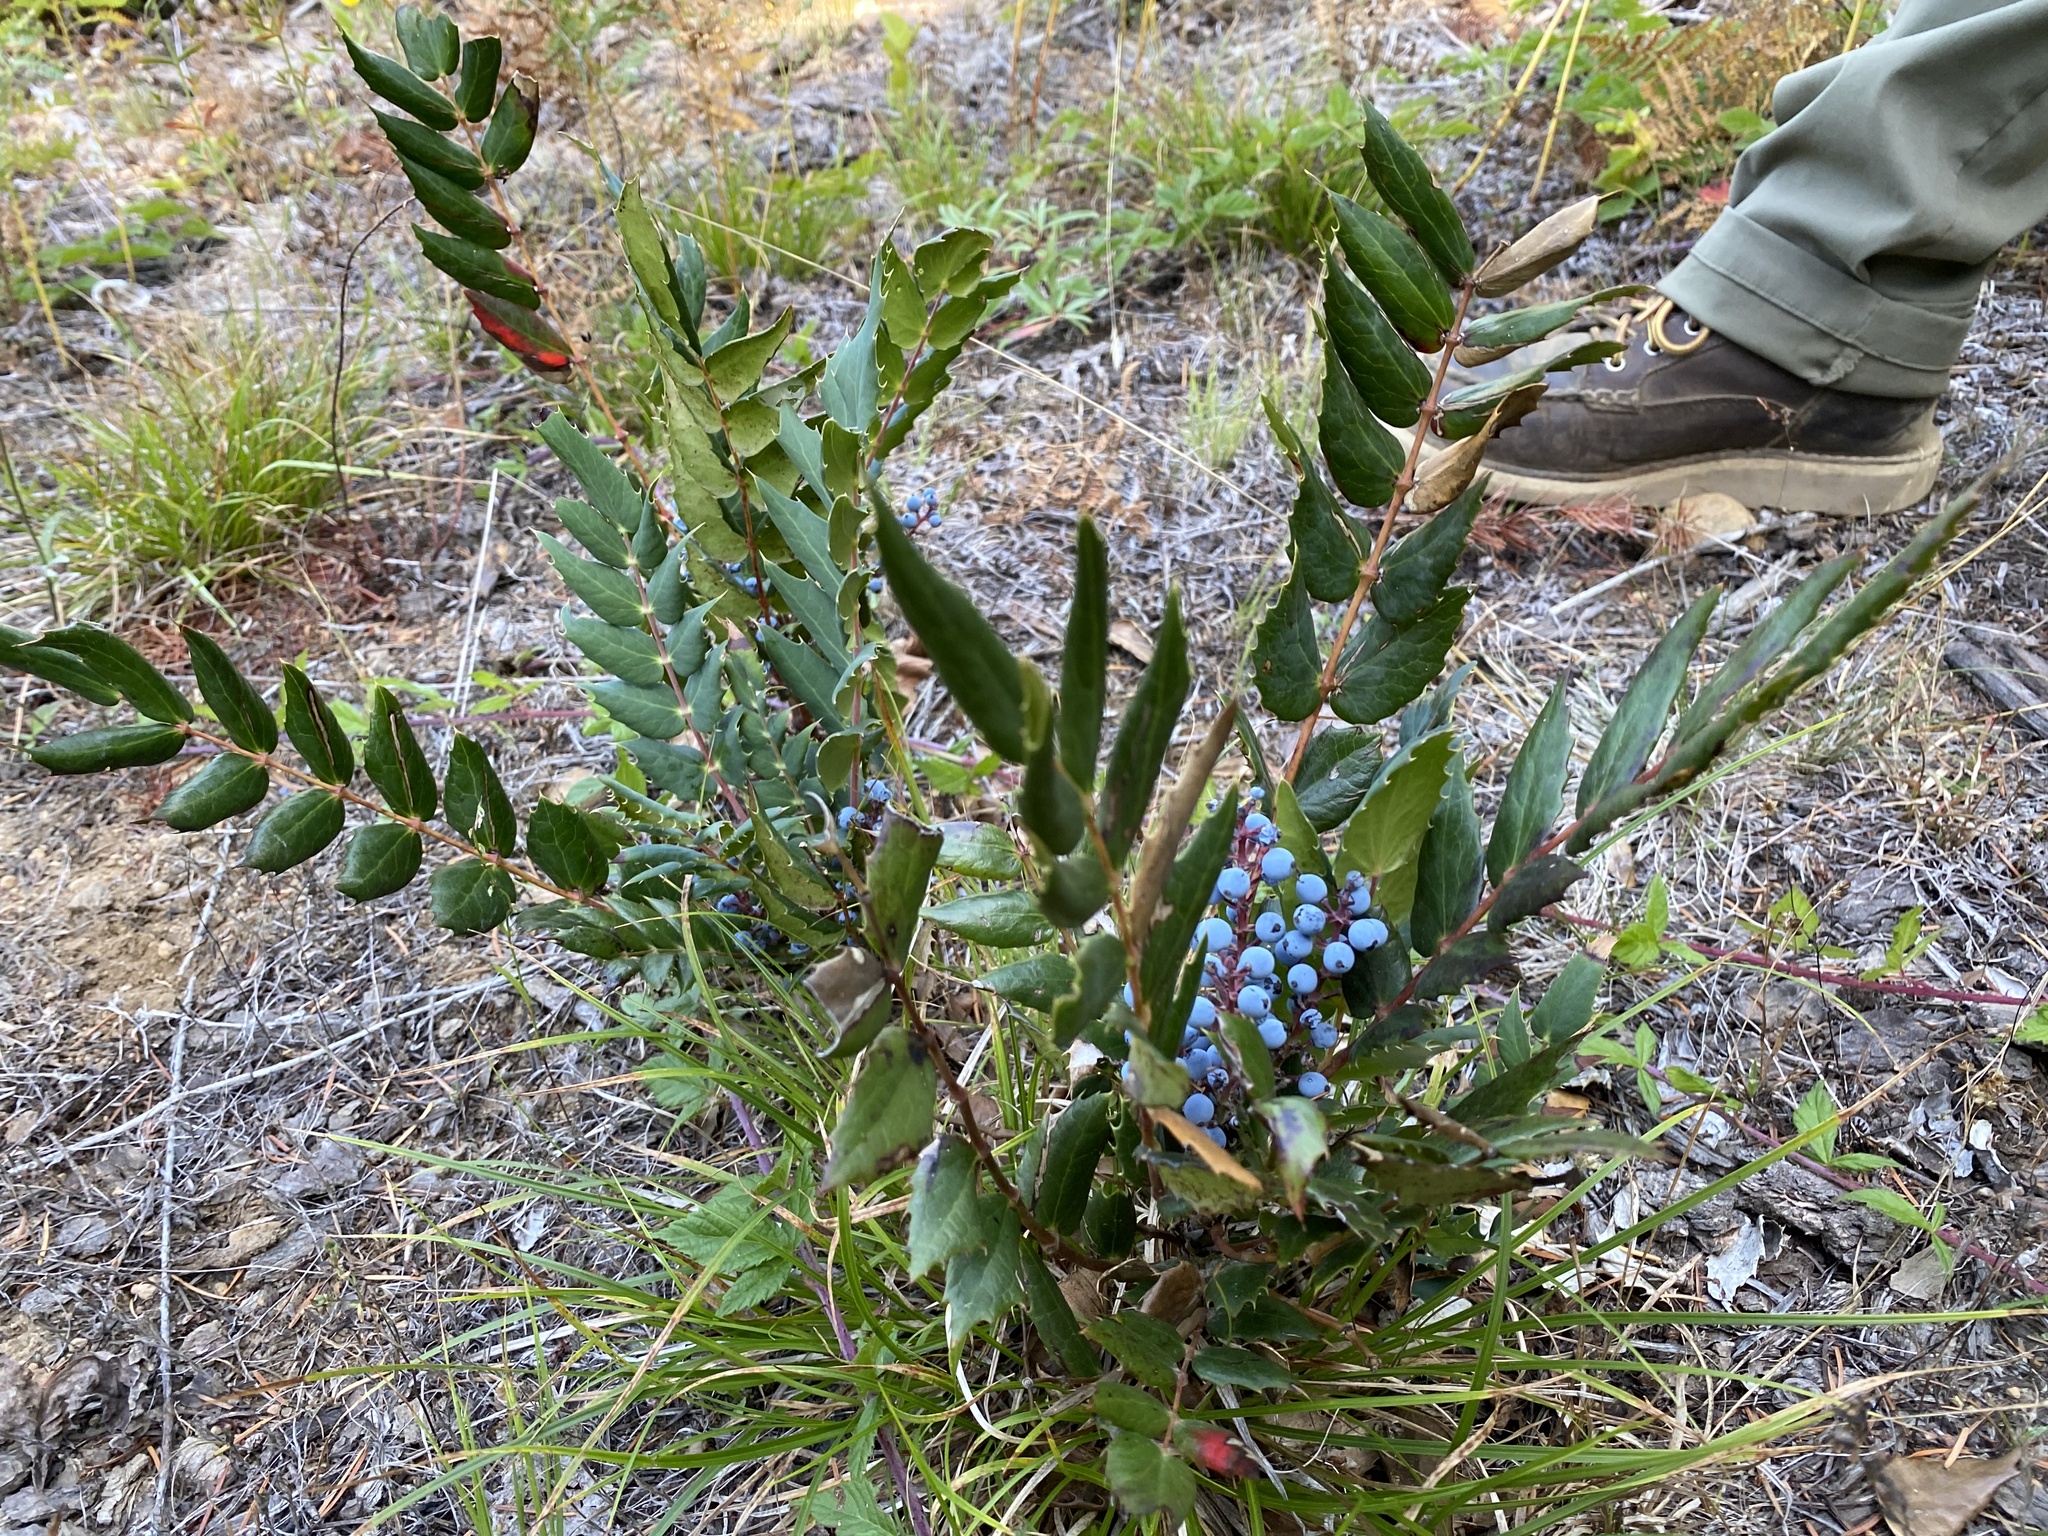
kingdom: Plantae
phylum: Tracheophyta
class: Magnoliopsida
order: Ranunculales
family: Berberidaceae
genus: Mahonia
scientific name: Mahonia nervosa
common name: Cascade oregon-grape
